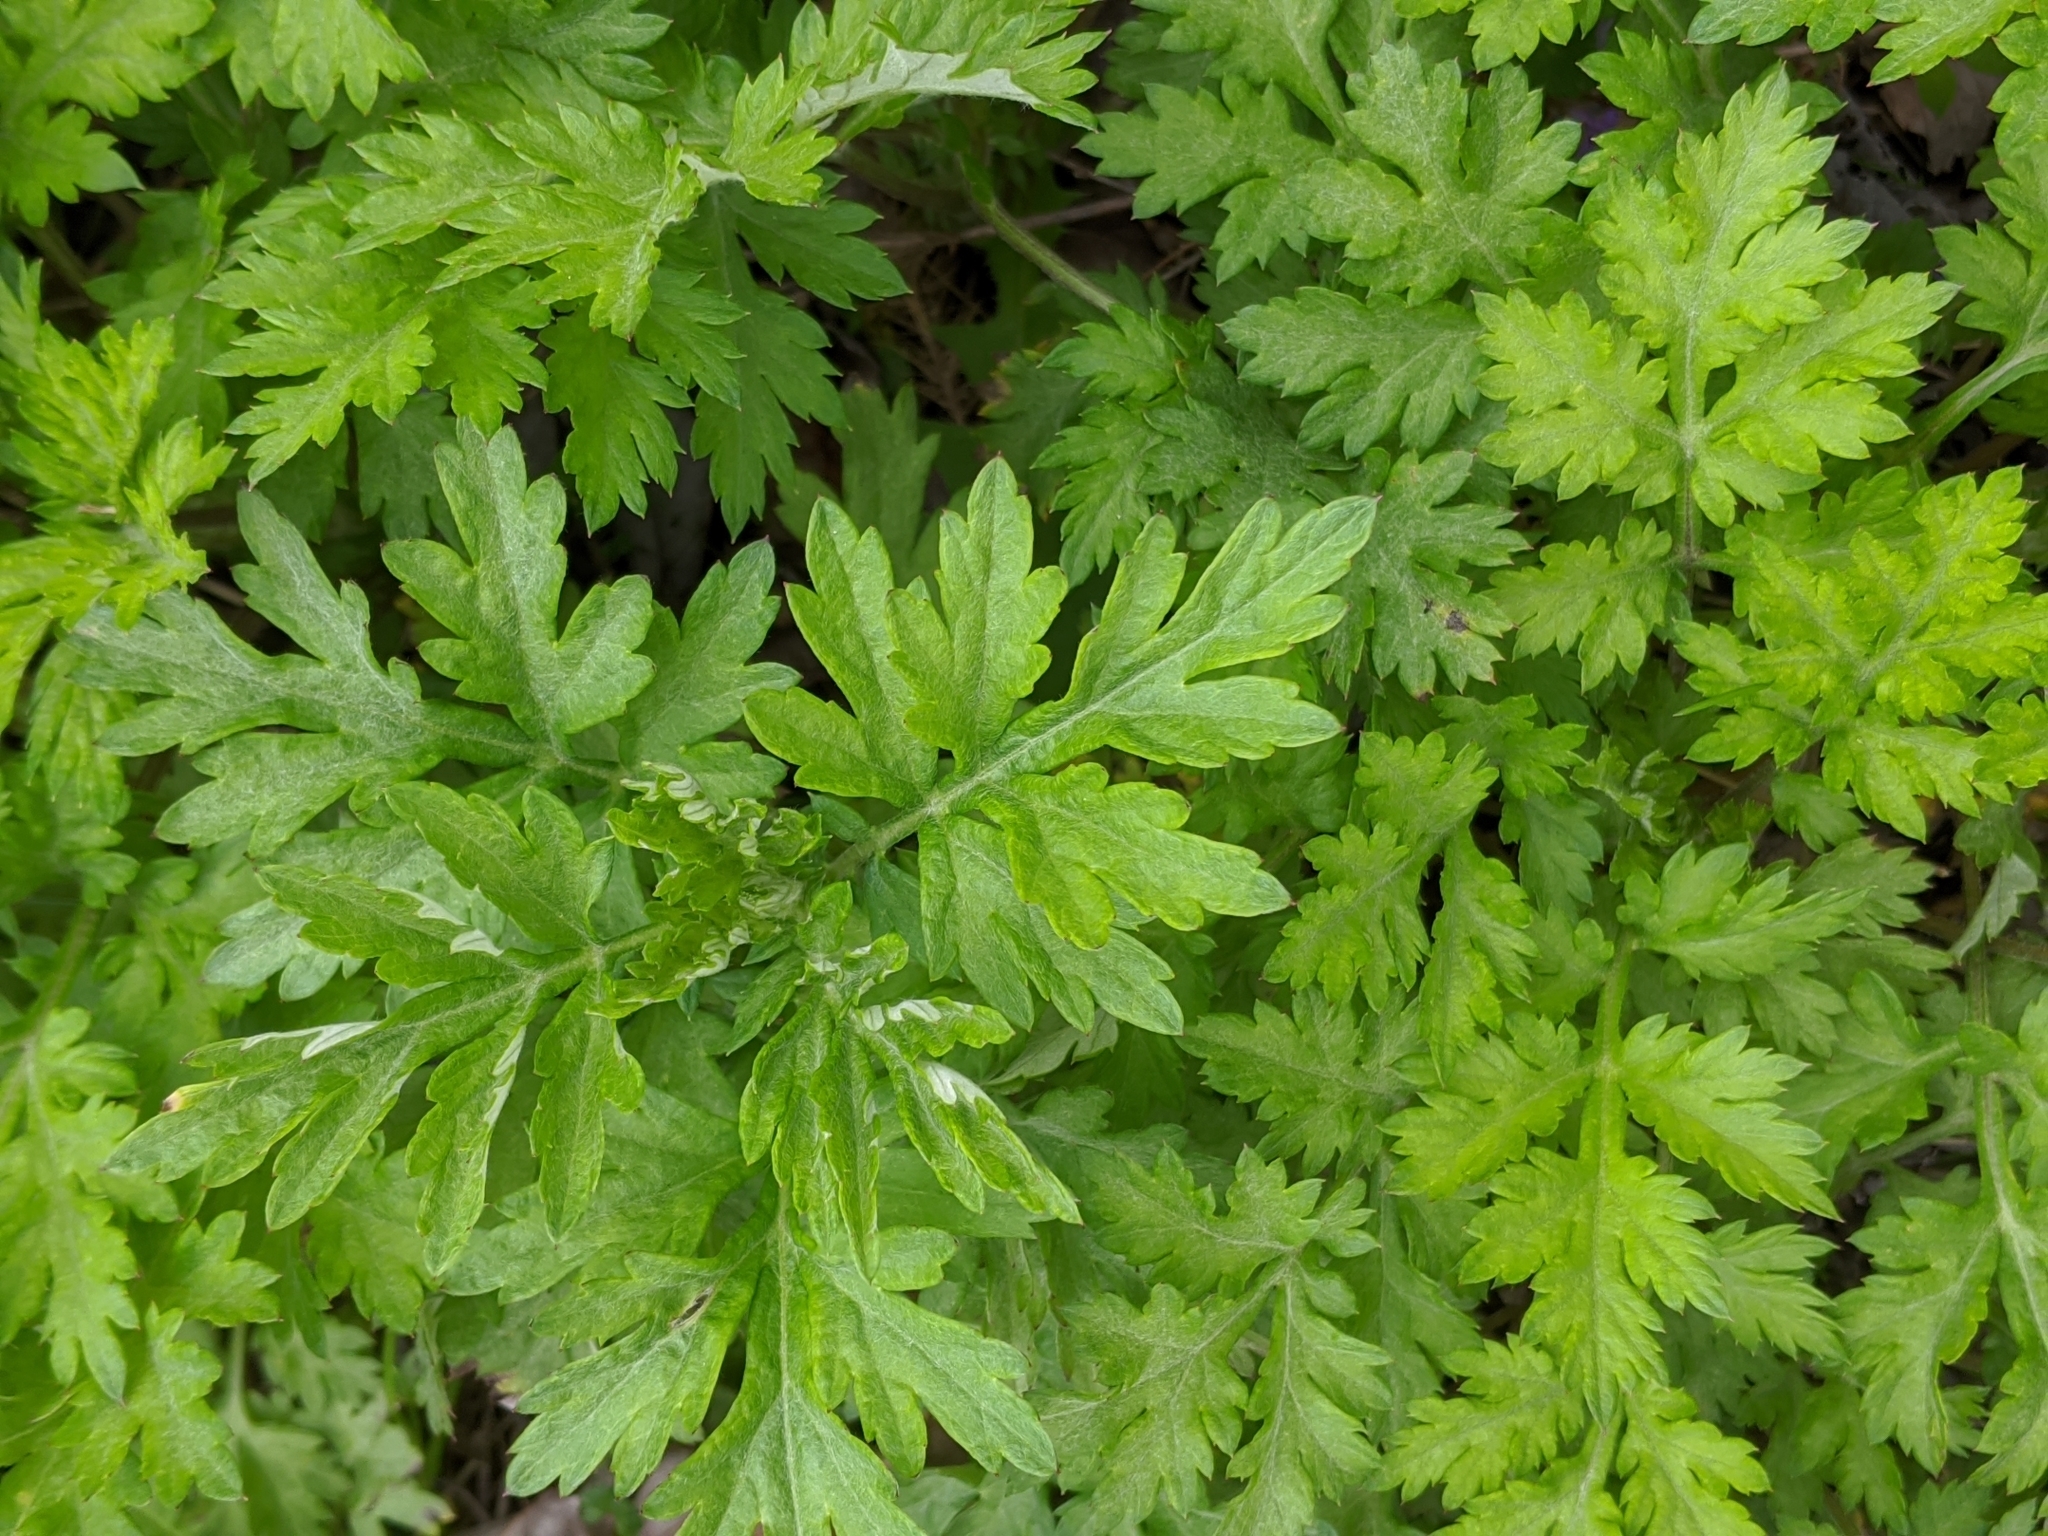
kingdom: Plantae
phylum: Tracheophyta
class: Magnoliopsida
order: Asterales
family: Asteraceae
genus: Artemisia
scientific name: Artemisia vulgaris
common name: Mugwort
